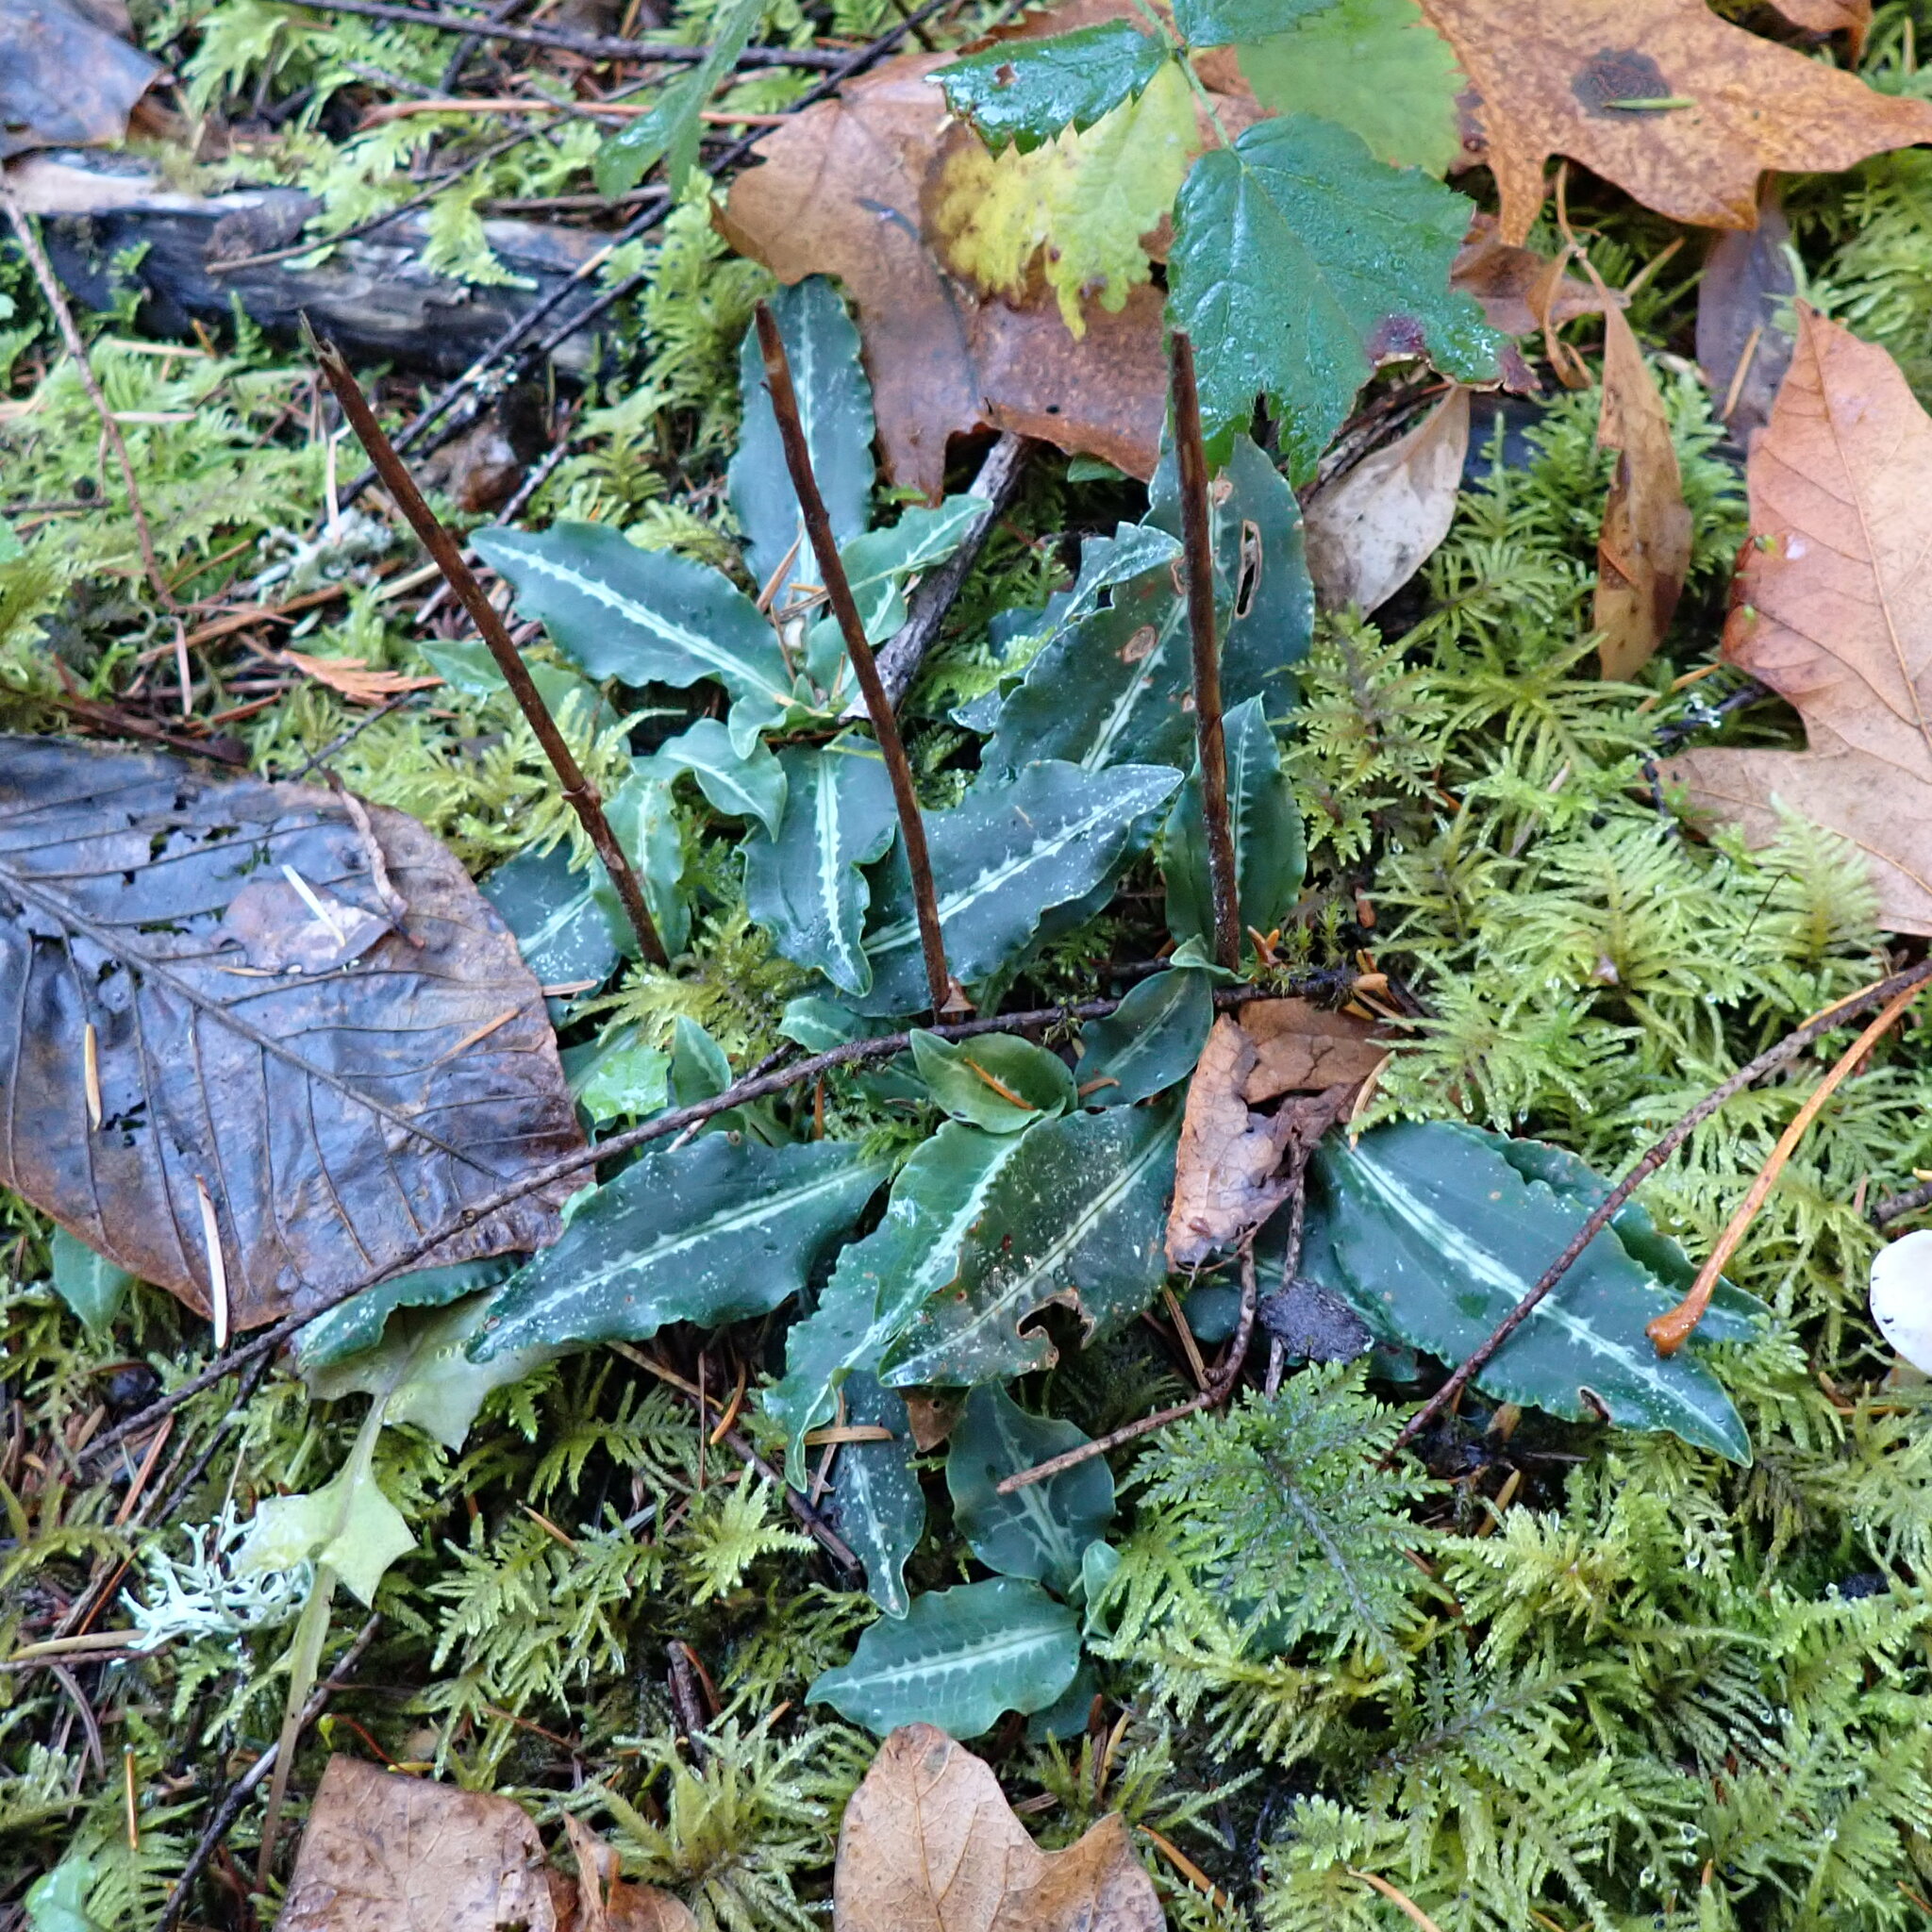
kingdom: Plantae
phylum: Tracheophyta
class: Liliopsida
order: Asparagales
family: Orchidaceae
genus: Goodyera
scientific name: Goodyera oblongifolia
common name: Giant rattlesnake-plantain
